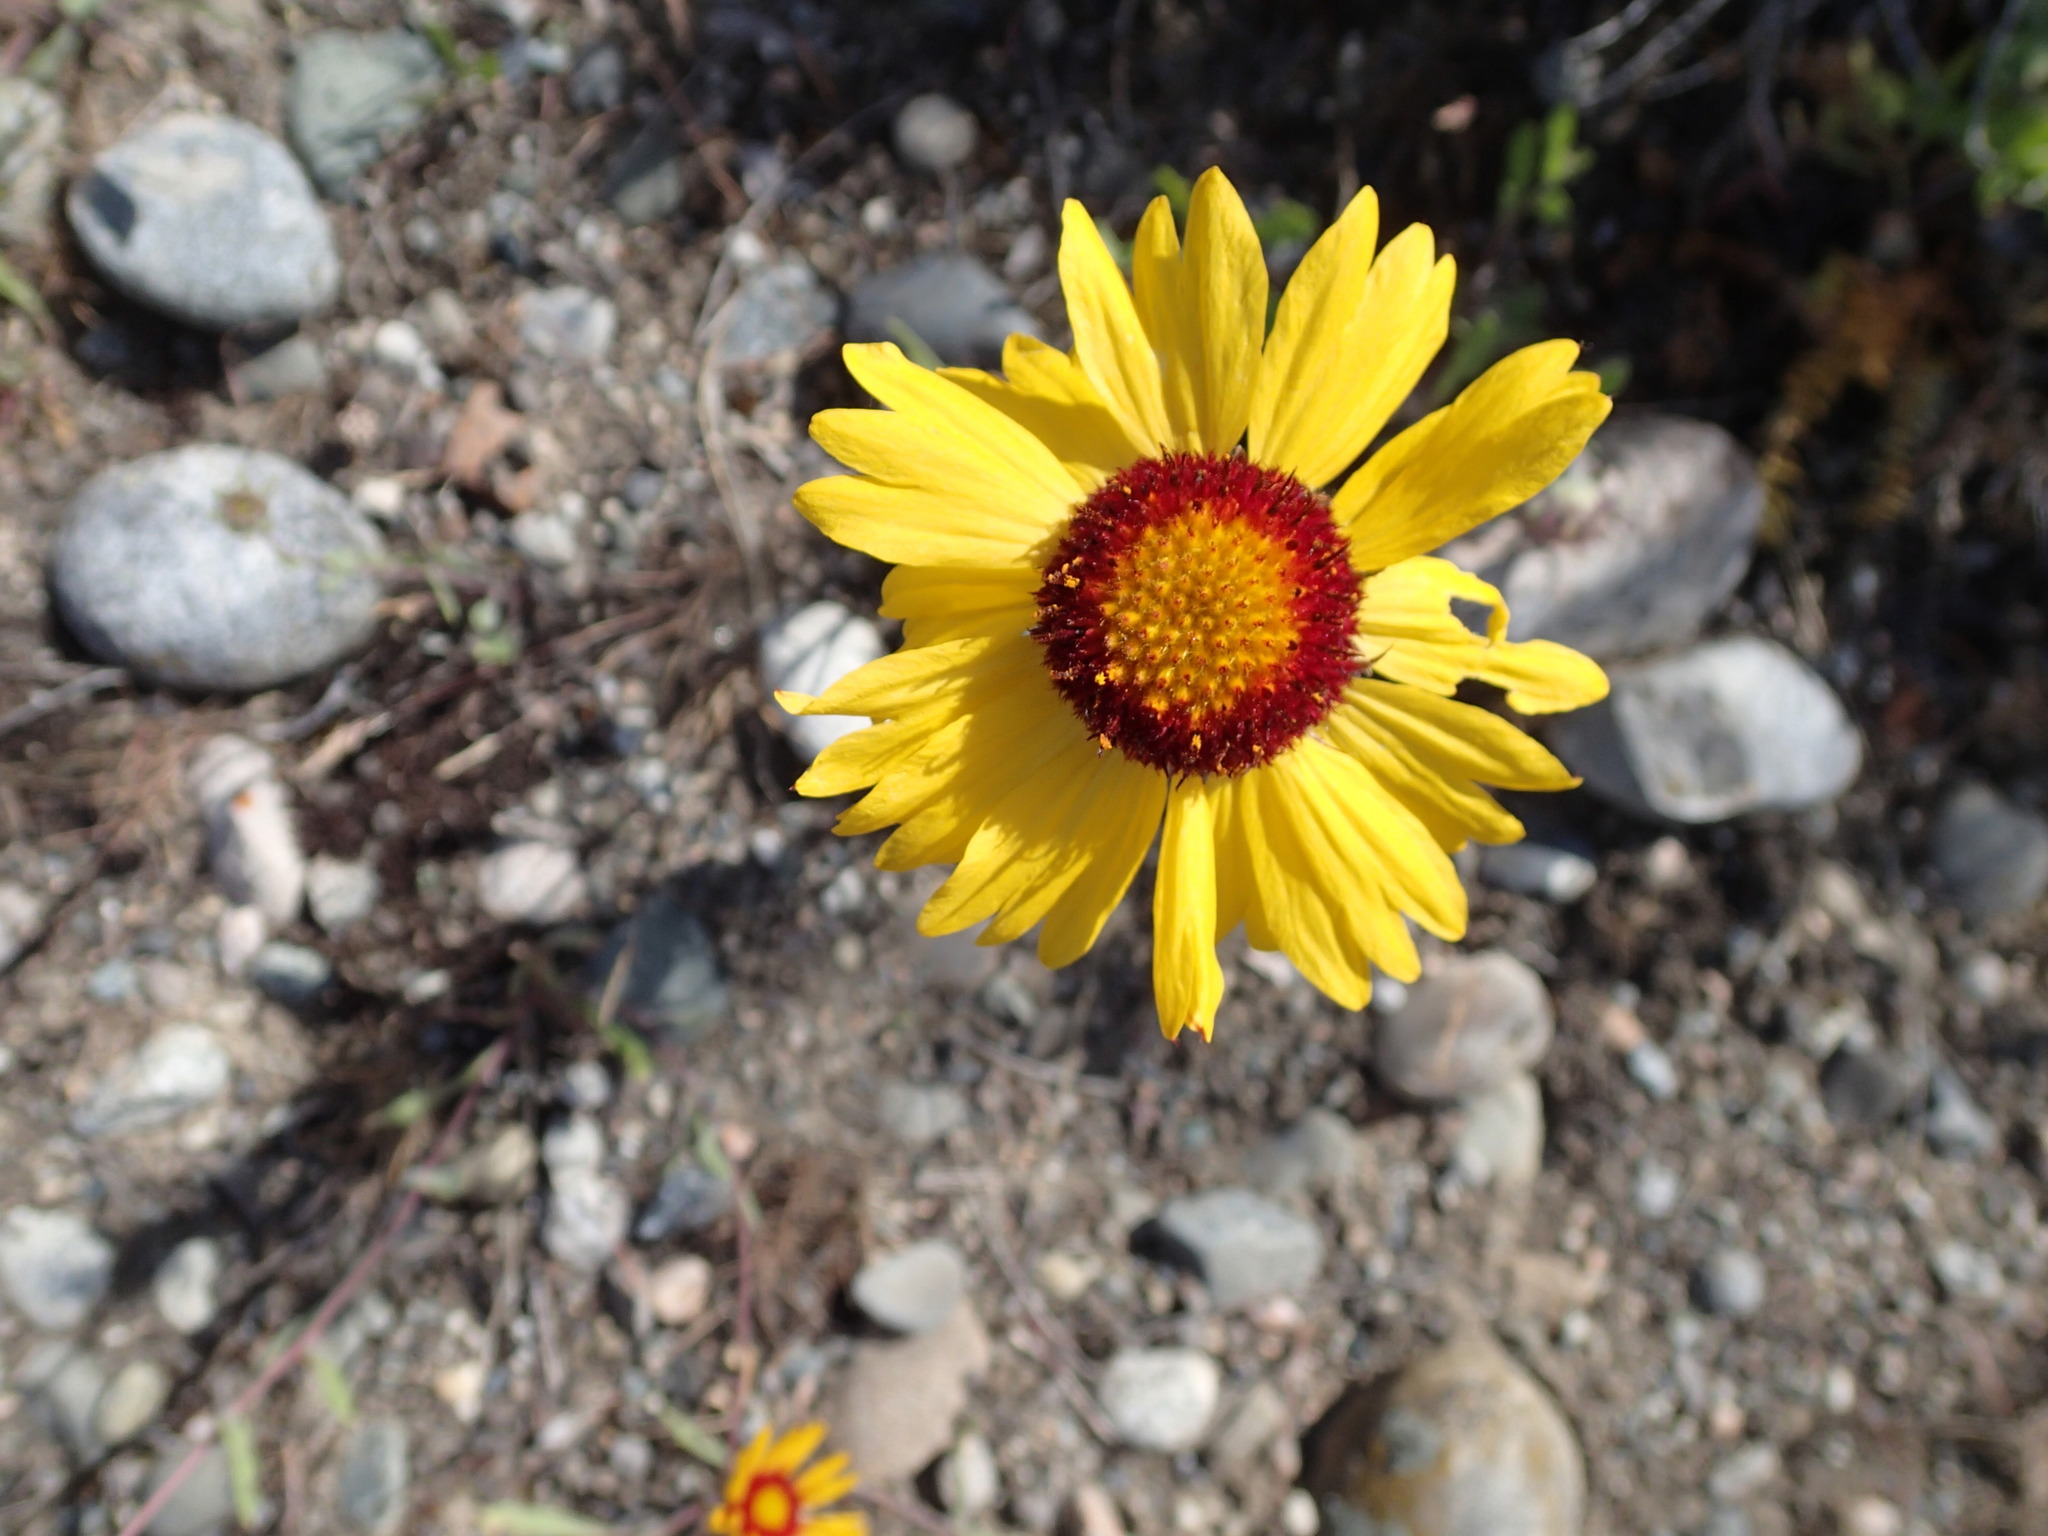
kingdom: Plantae
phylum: Tracheophyta
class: Magnoliopsida
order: Asterales
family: Asteraceae
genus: Gaillardia
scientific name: Gaillardia aristata
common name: Blanket-flower
